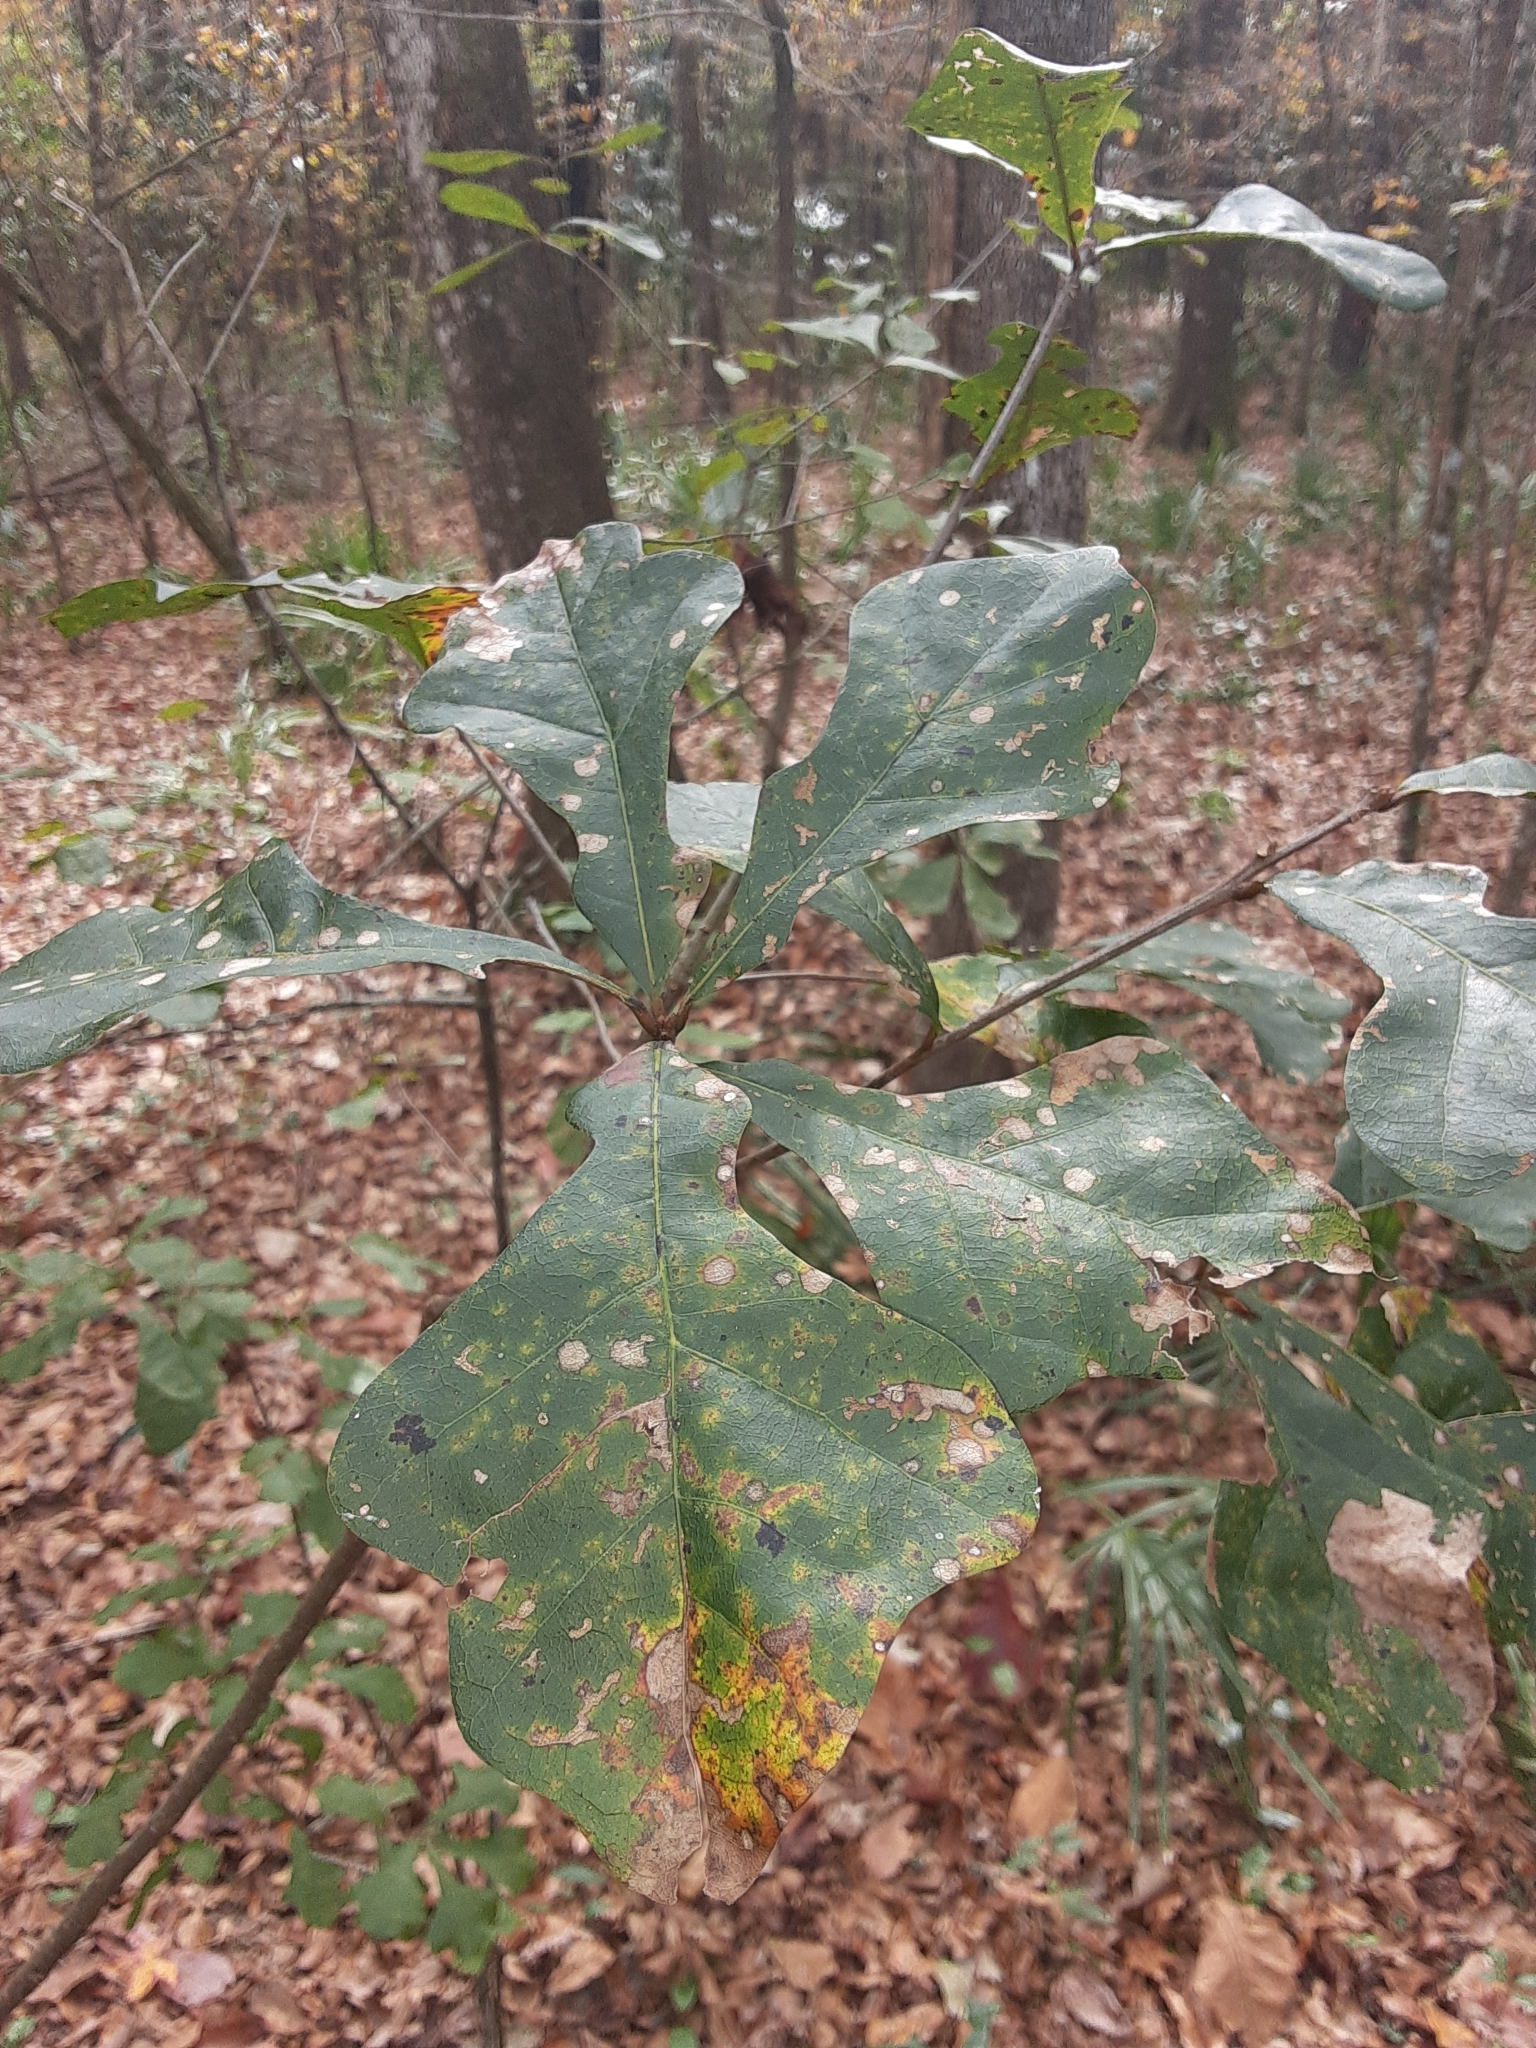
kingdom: Plantae
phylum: Tracheophyta
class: Magnoliopsida
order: Fagales
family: Fagaceae
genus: Quercus
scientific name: Quercus nigra
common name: Water oak
